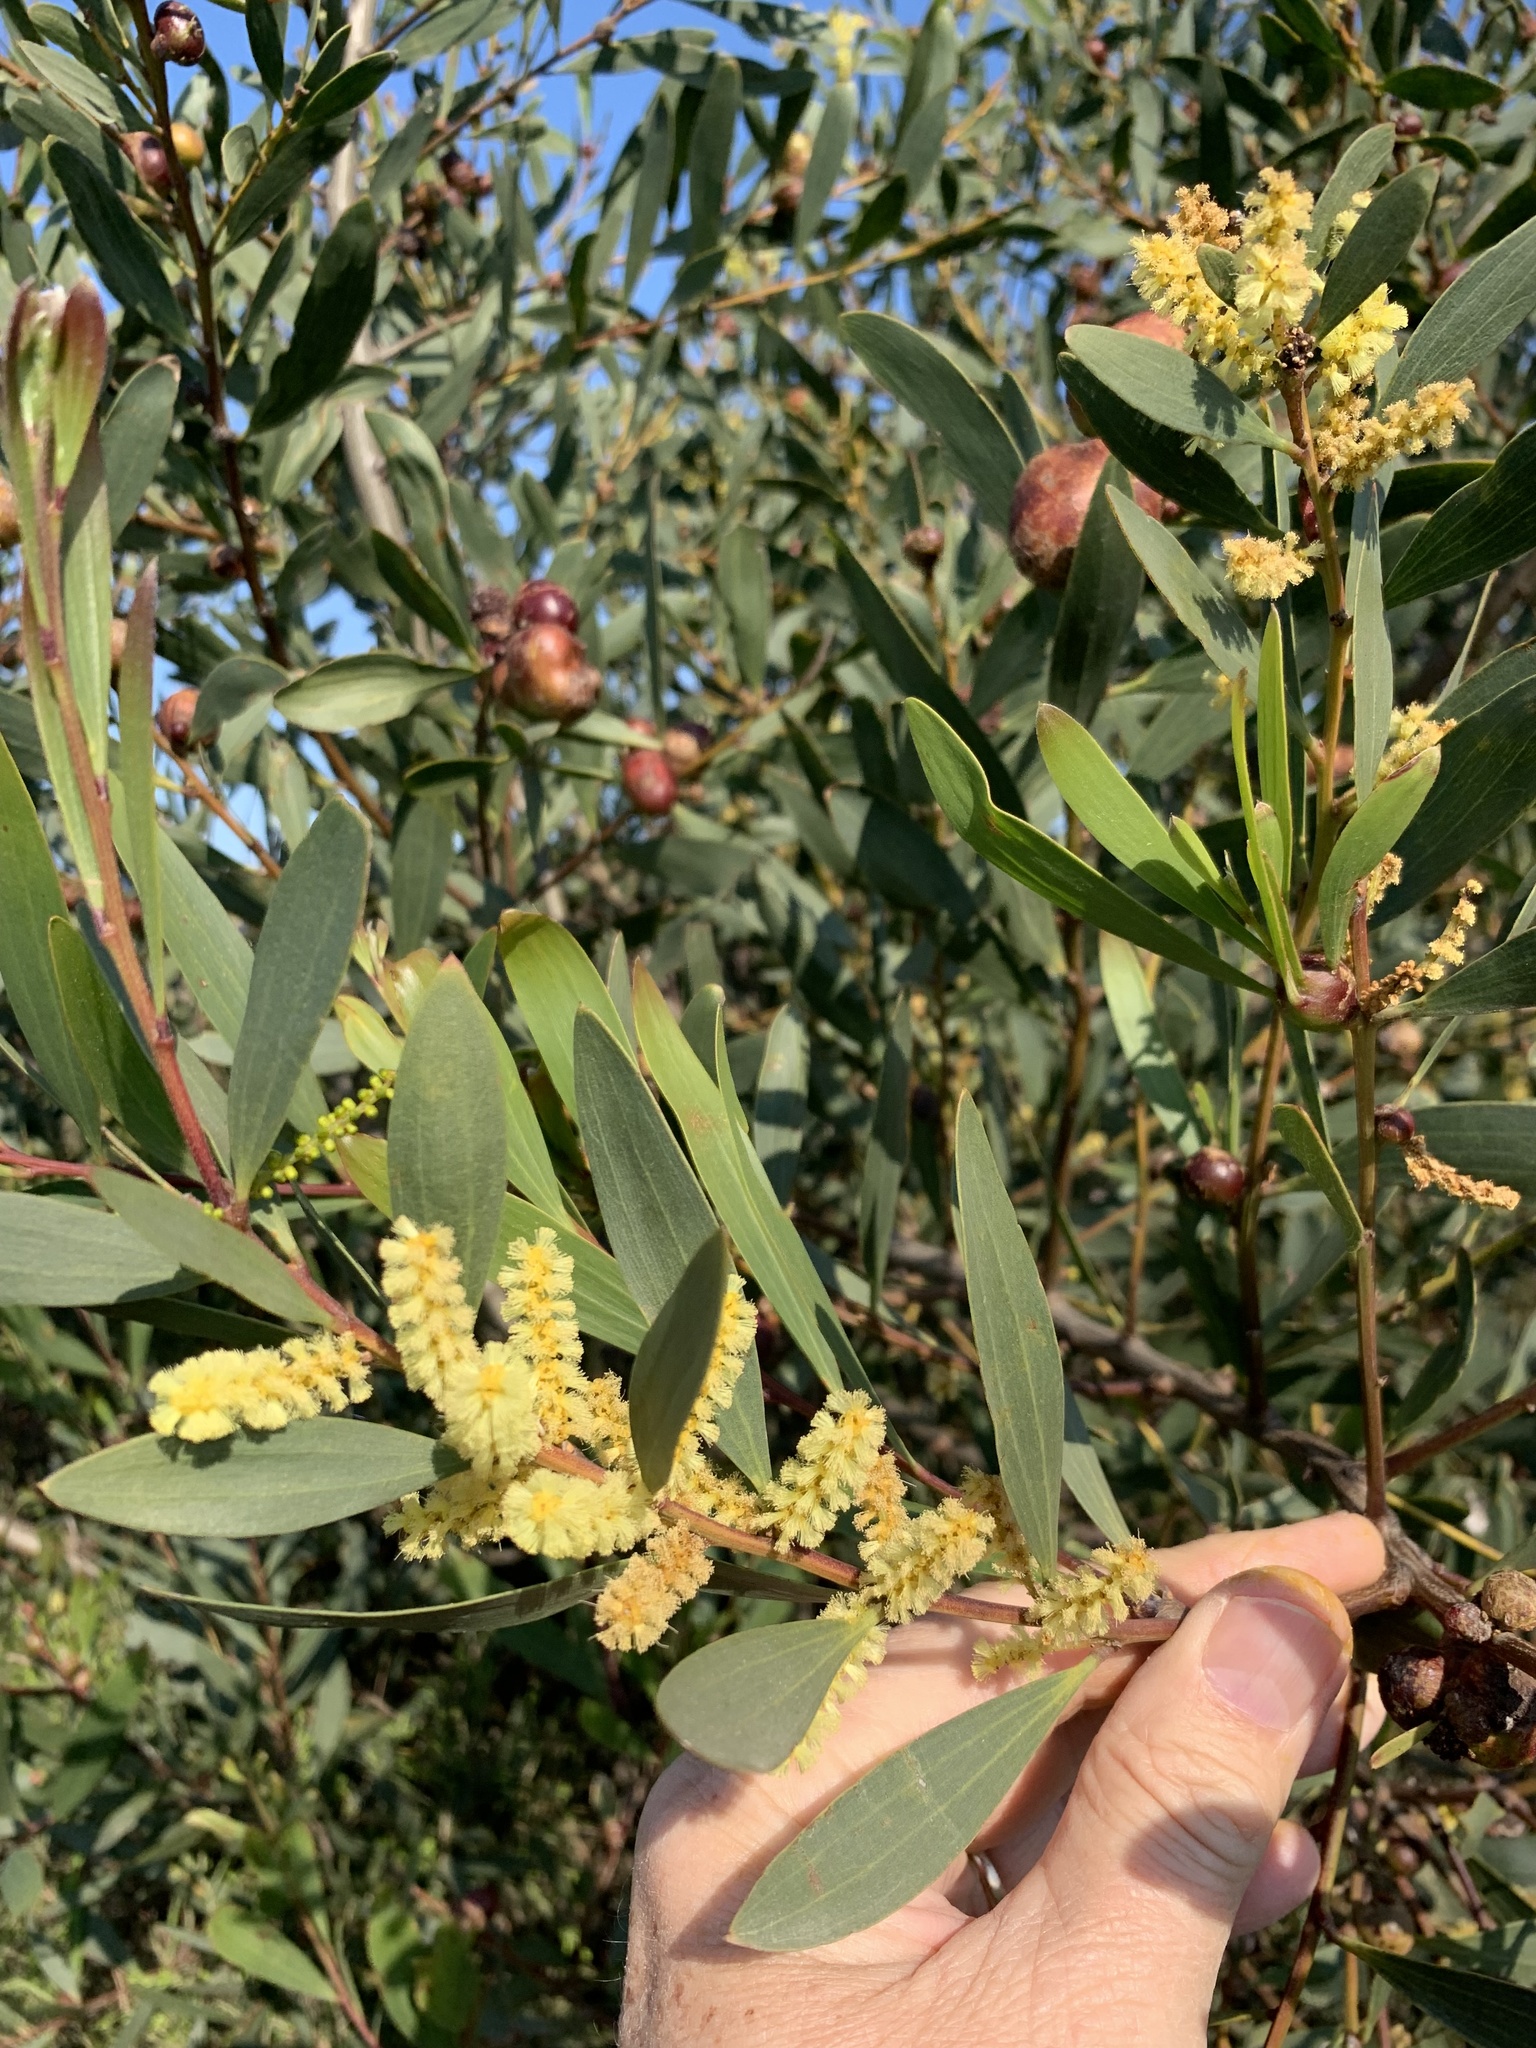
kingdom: Plantae
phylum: Tracheophyta
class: Magnoliopsida
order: Fabales
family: Fabaceae
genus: Acacia
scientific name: Acacia longifolia
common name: Sydney golden wattle
